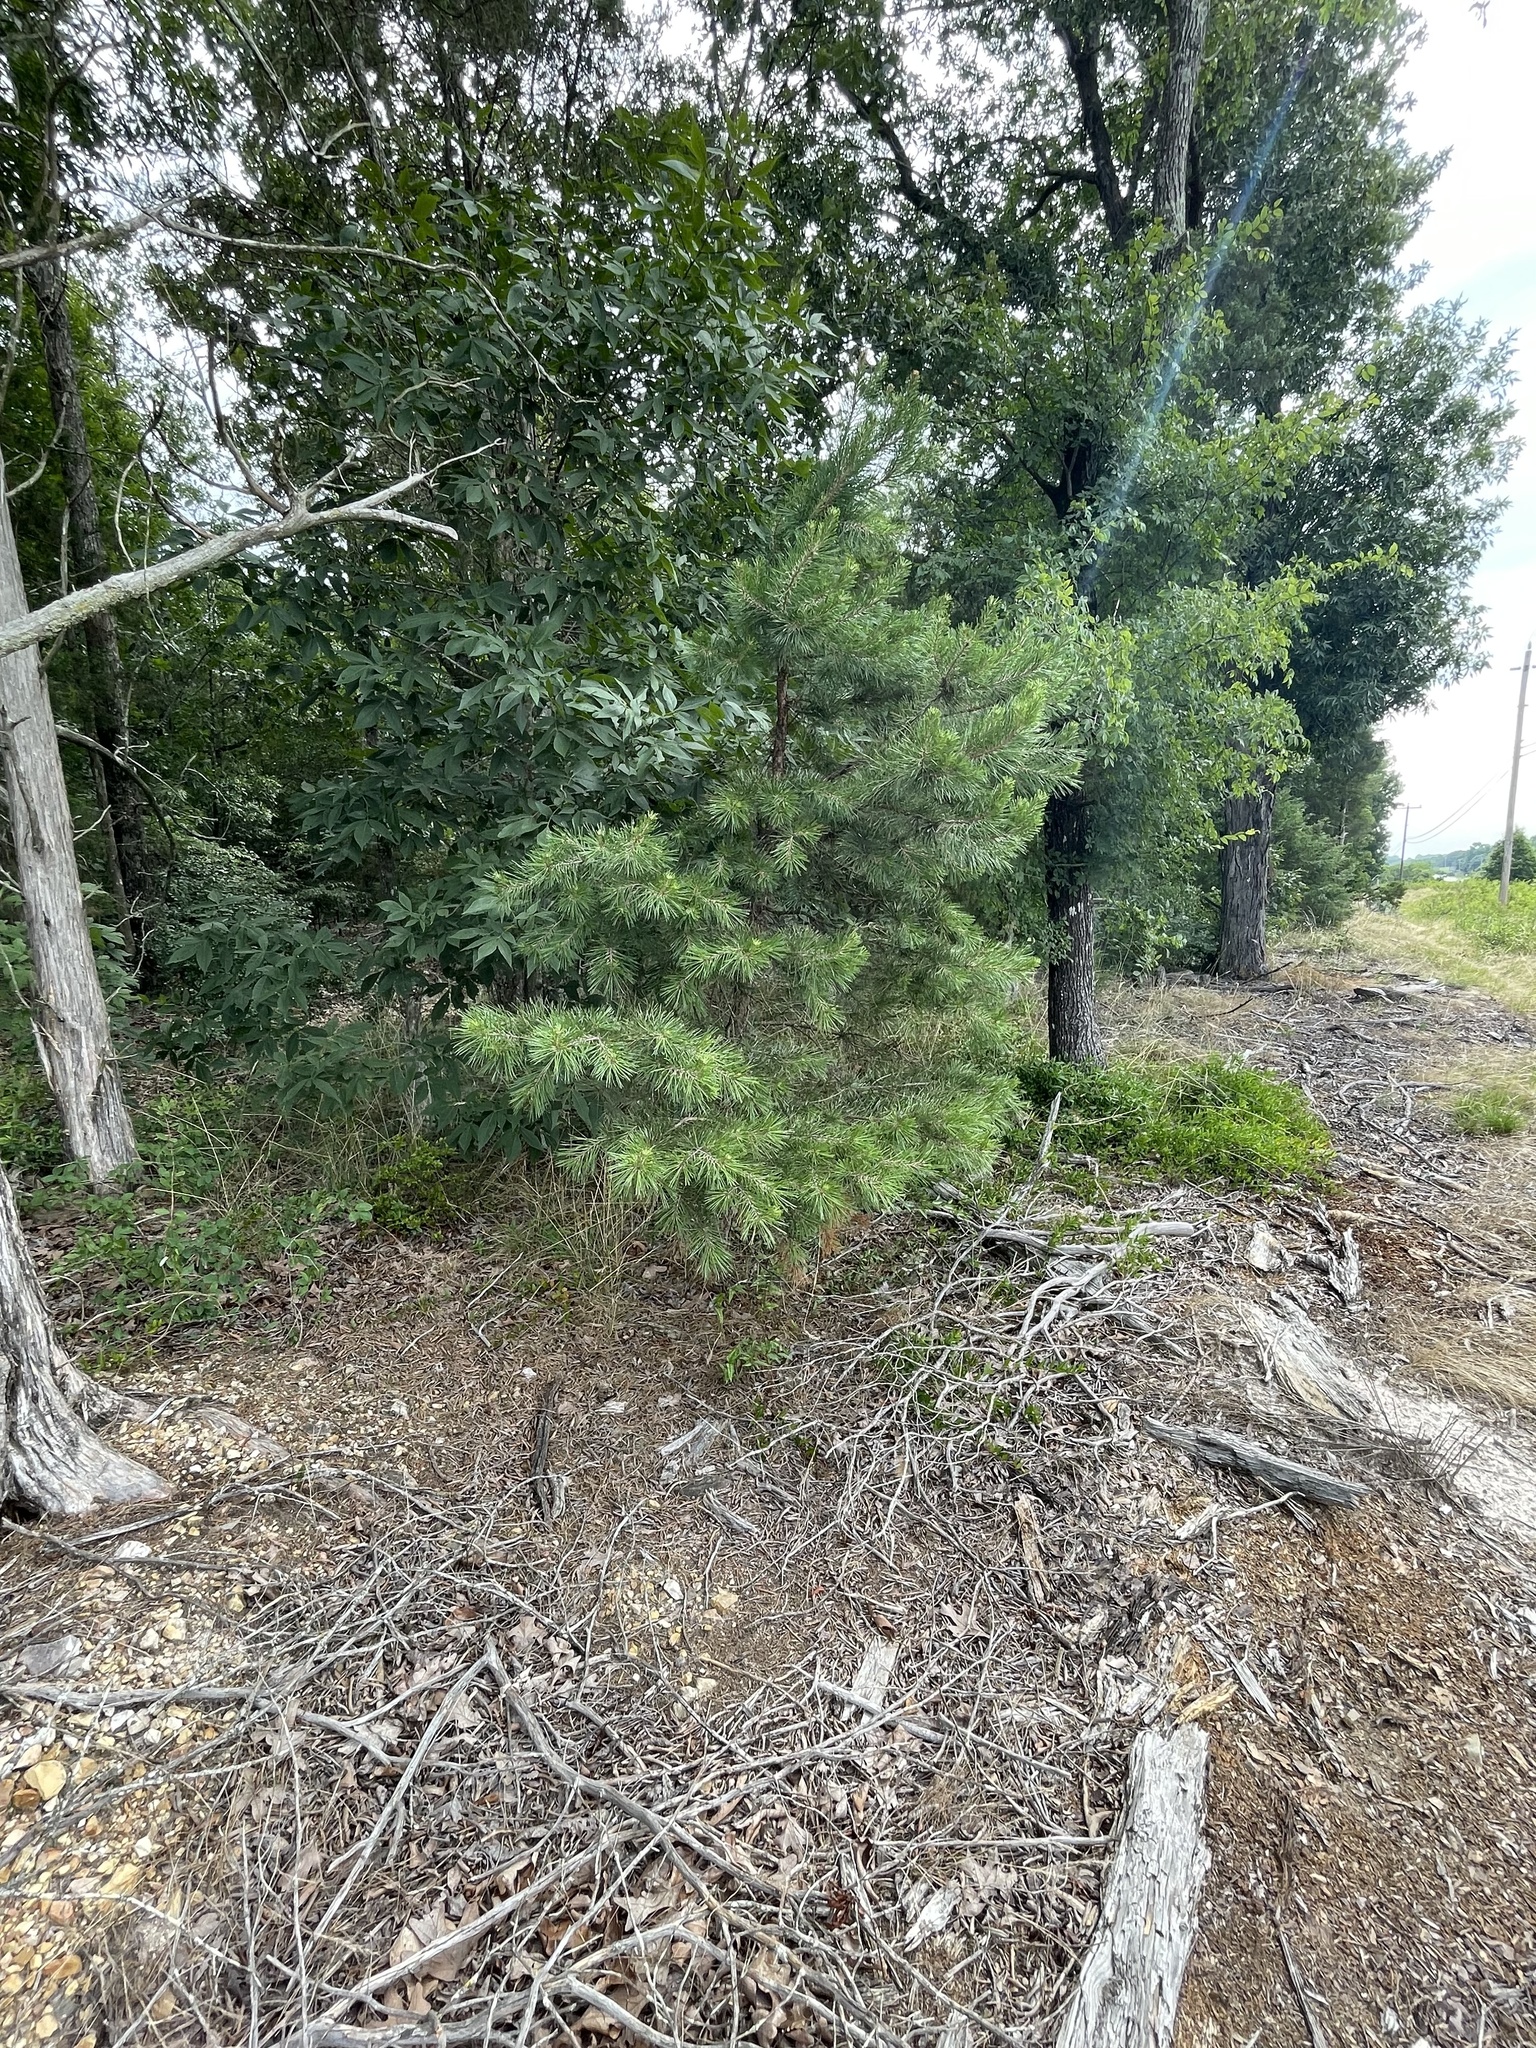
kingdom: Plantae
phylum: Tracheophyta
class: Pinopsida
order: Pinales
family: Pinaceae
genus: Pinus
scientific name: Pinus echinata
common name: Shortleaf pine
